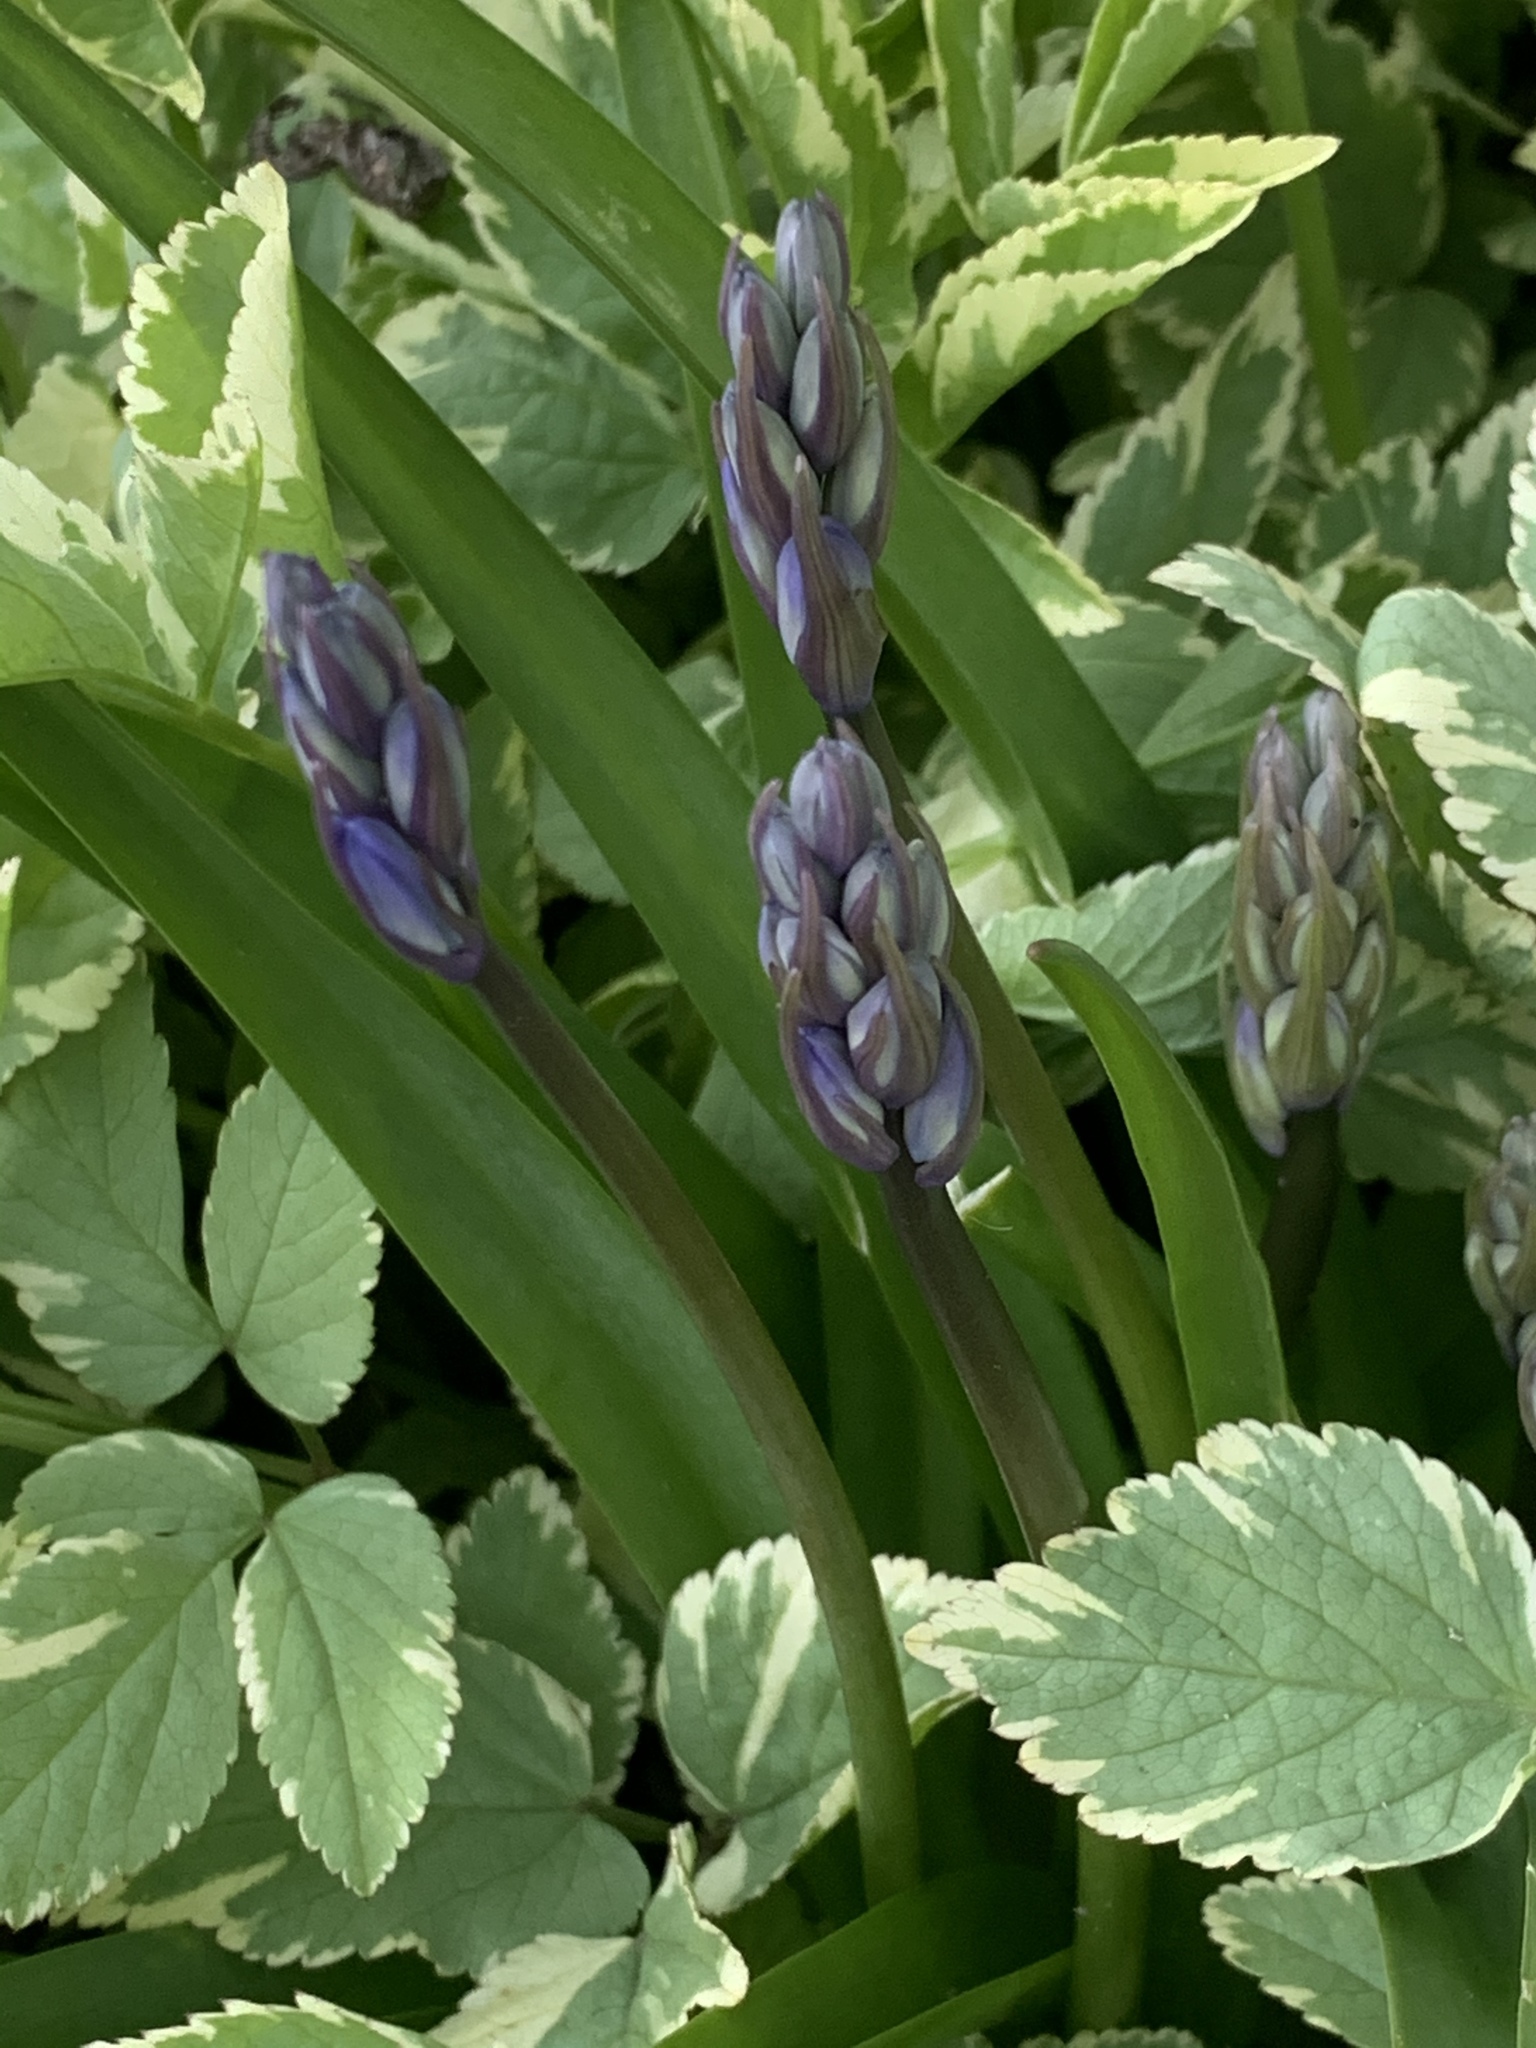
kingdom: Plantae
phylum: Tracheophyta
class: Liliopsida
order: Asparagales
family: Asparagaceae
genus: Hyacinthoides
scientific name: Hyacinthoides hispanica
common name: Spanish bluebell
